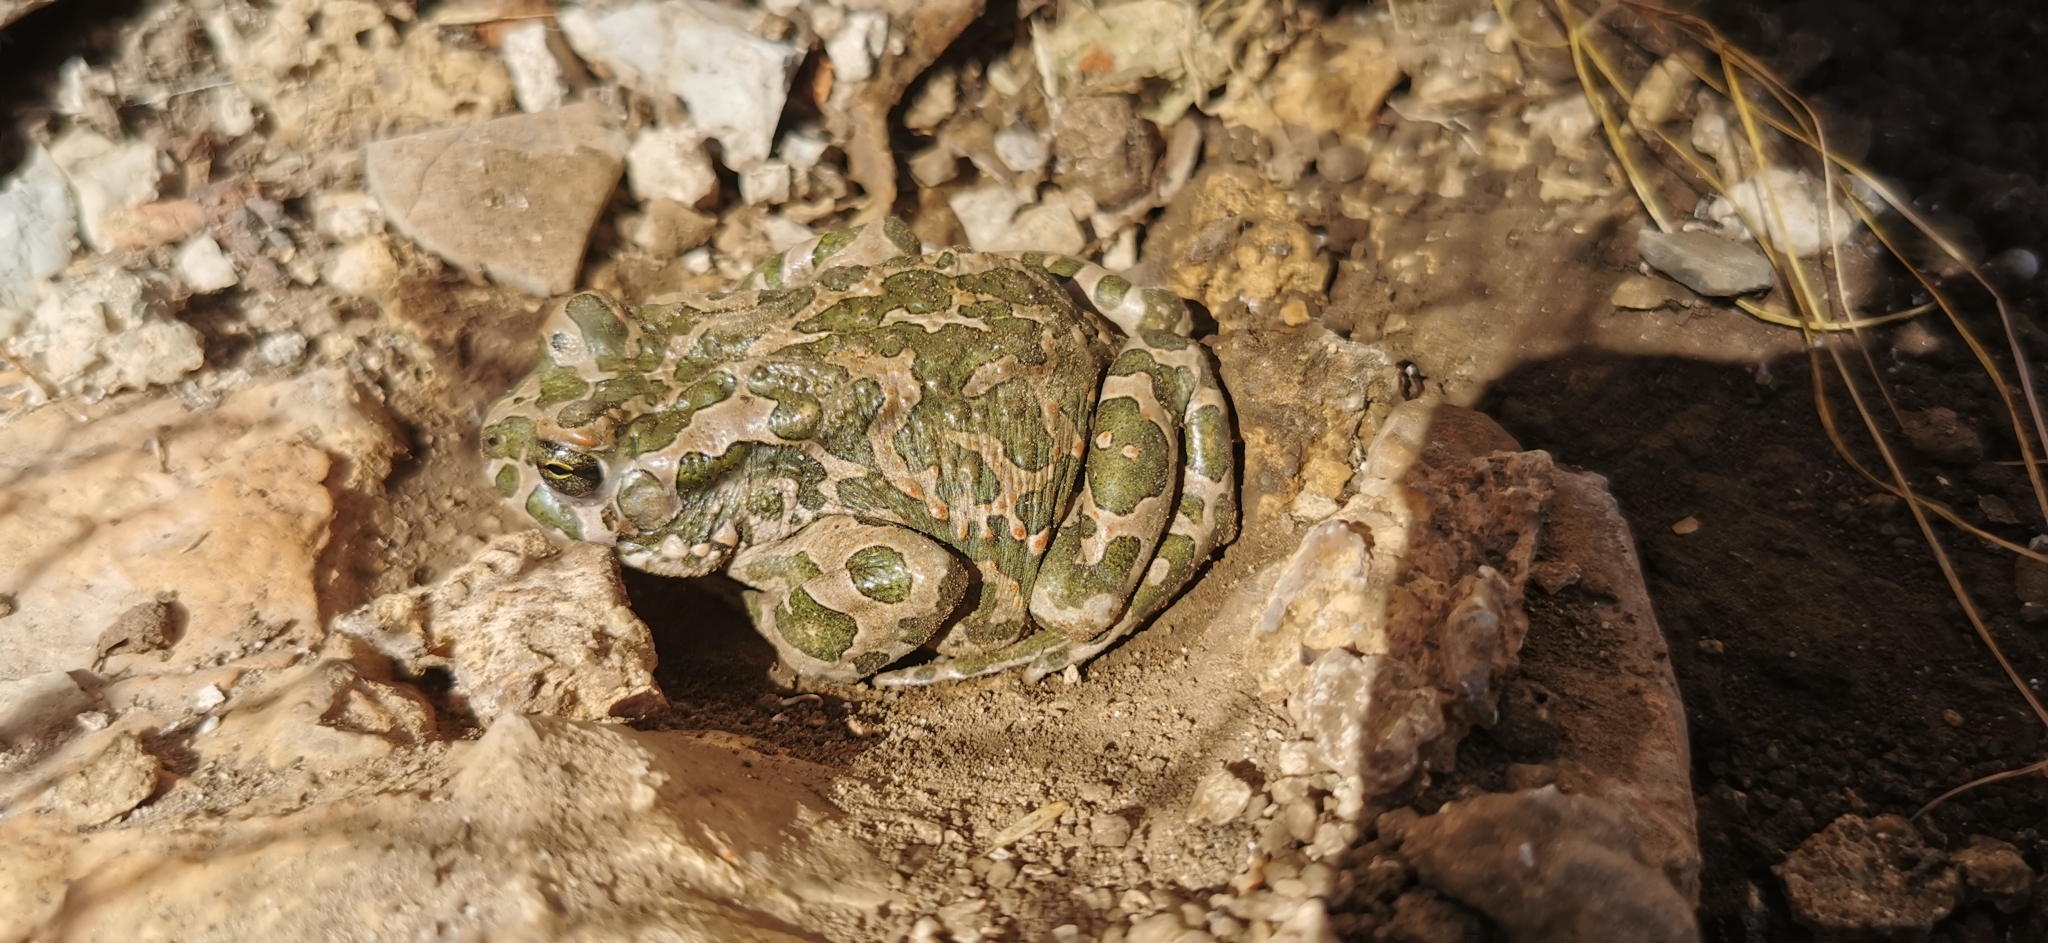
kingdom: Animalia
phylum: Chordata
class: Amphibia
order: Anura
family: Bufonidae
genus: Bufotes
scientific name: Bufotes viridis
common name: European green toad
